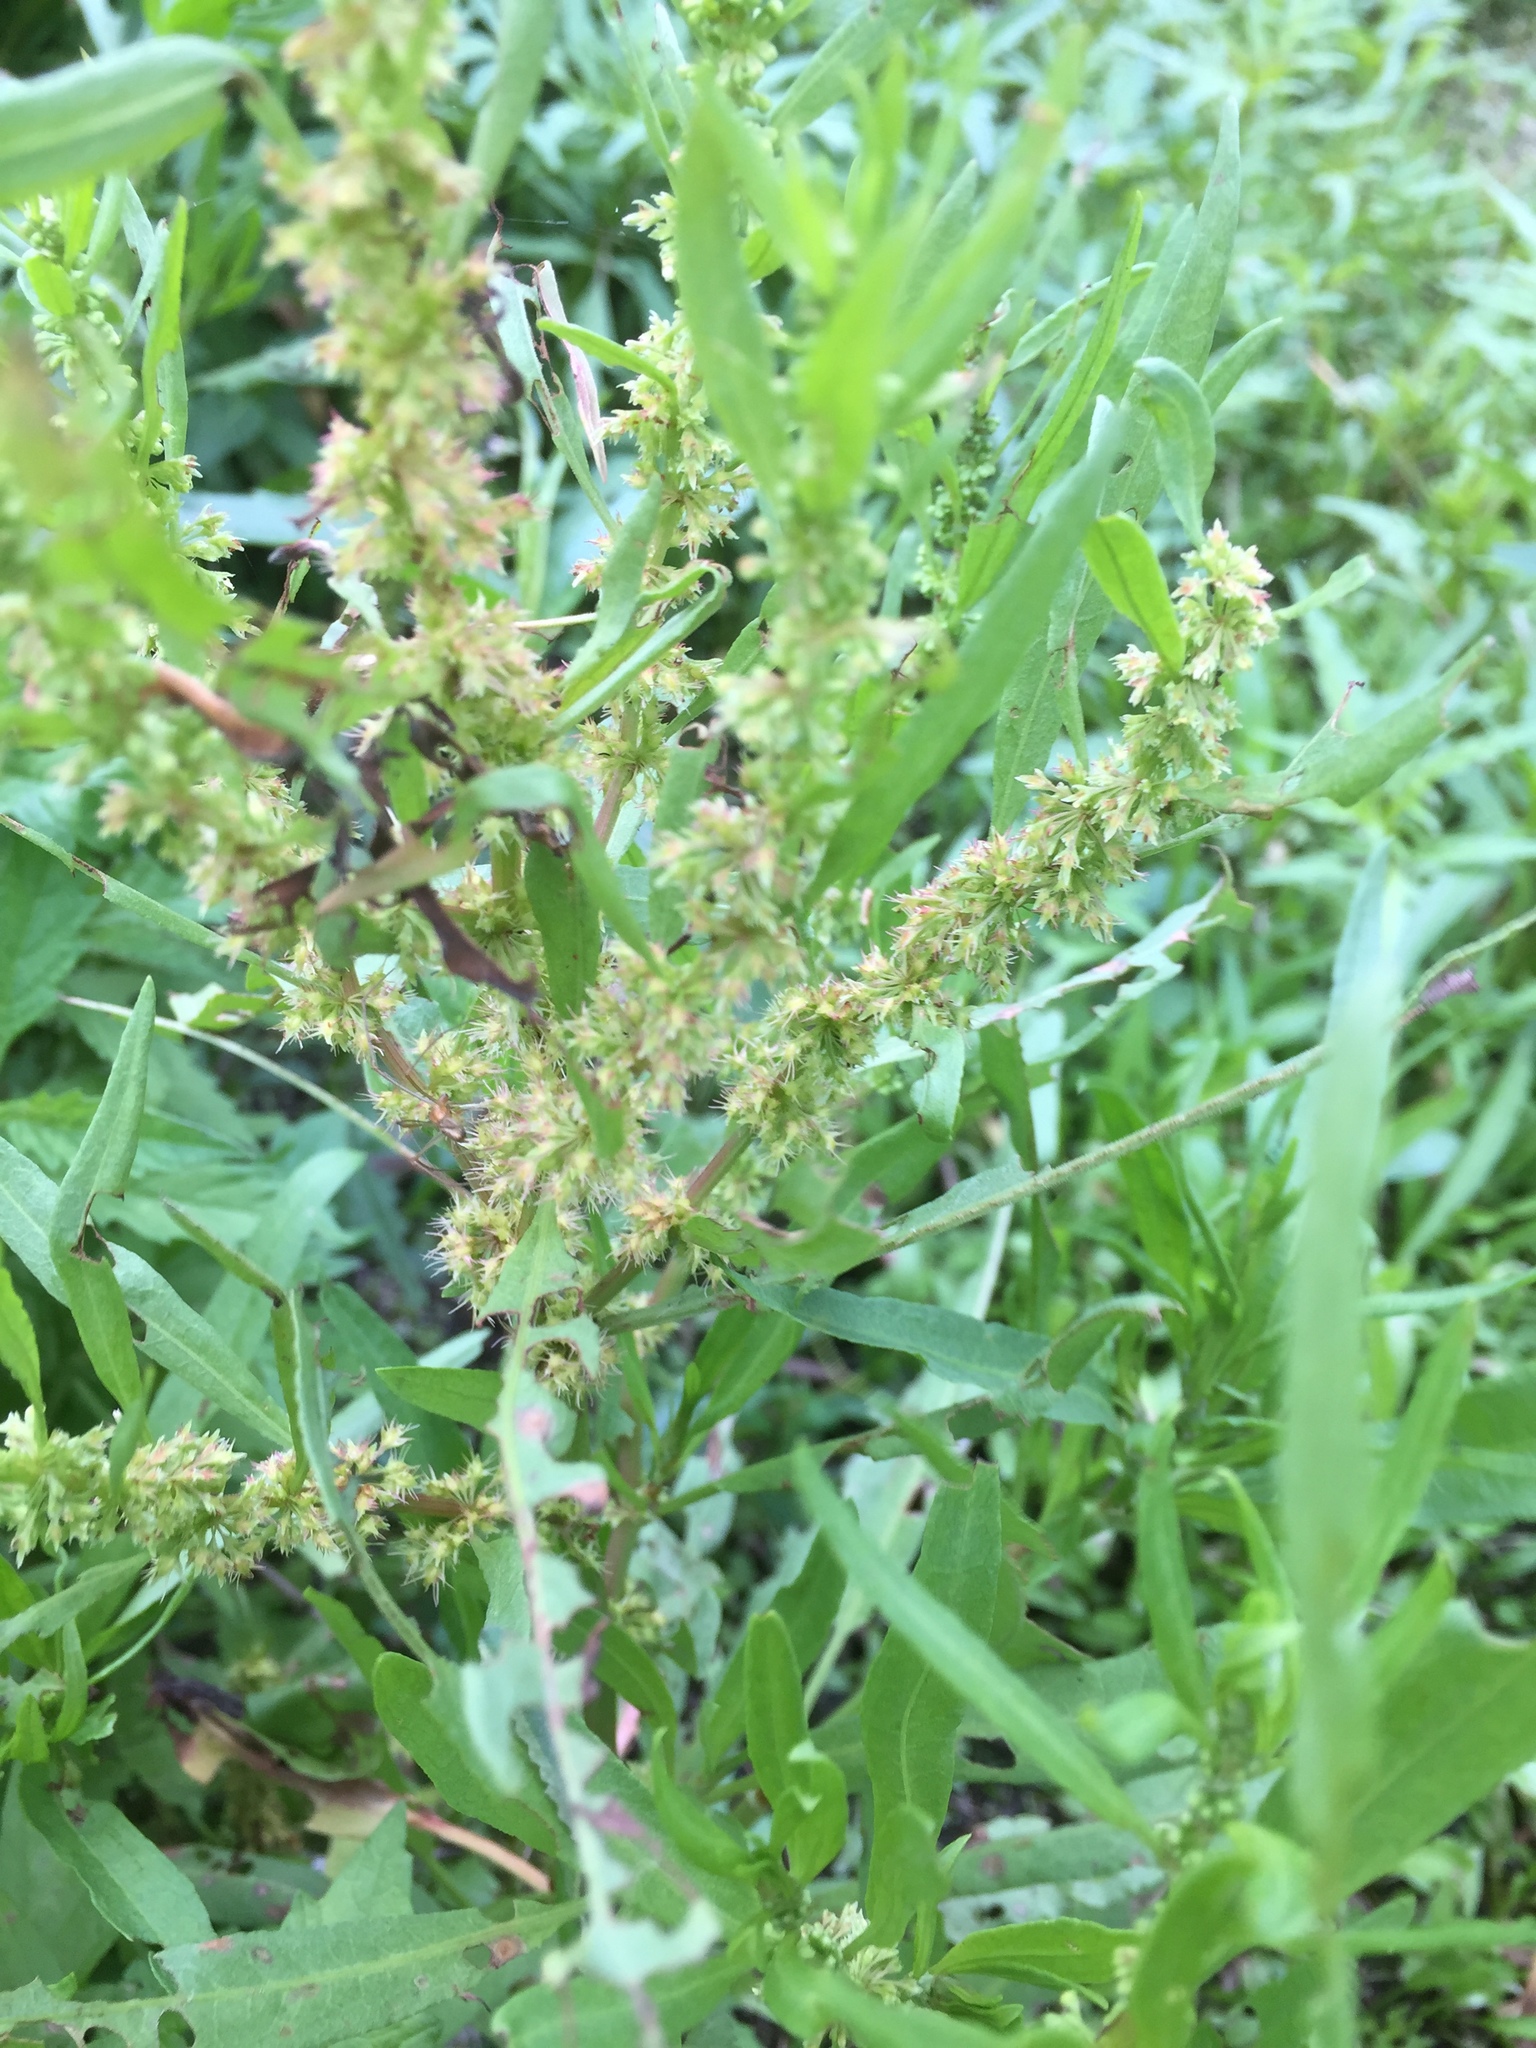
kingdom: Plantae
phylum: Tracheophyta
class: Magnoliopsida
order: Caryophyllales
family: Polygonaceae
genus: Rumex
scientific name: Rumex maritimus
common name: Golden dock
